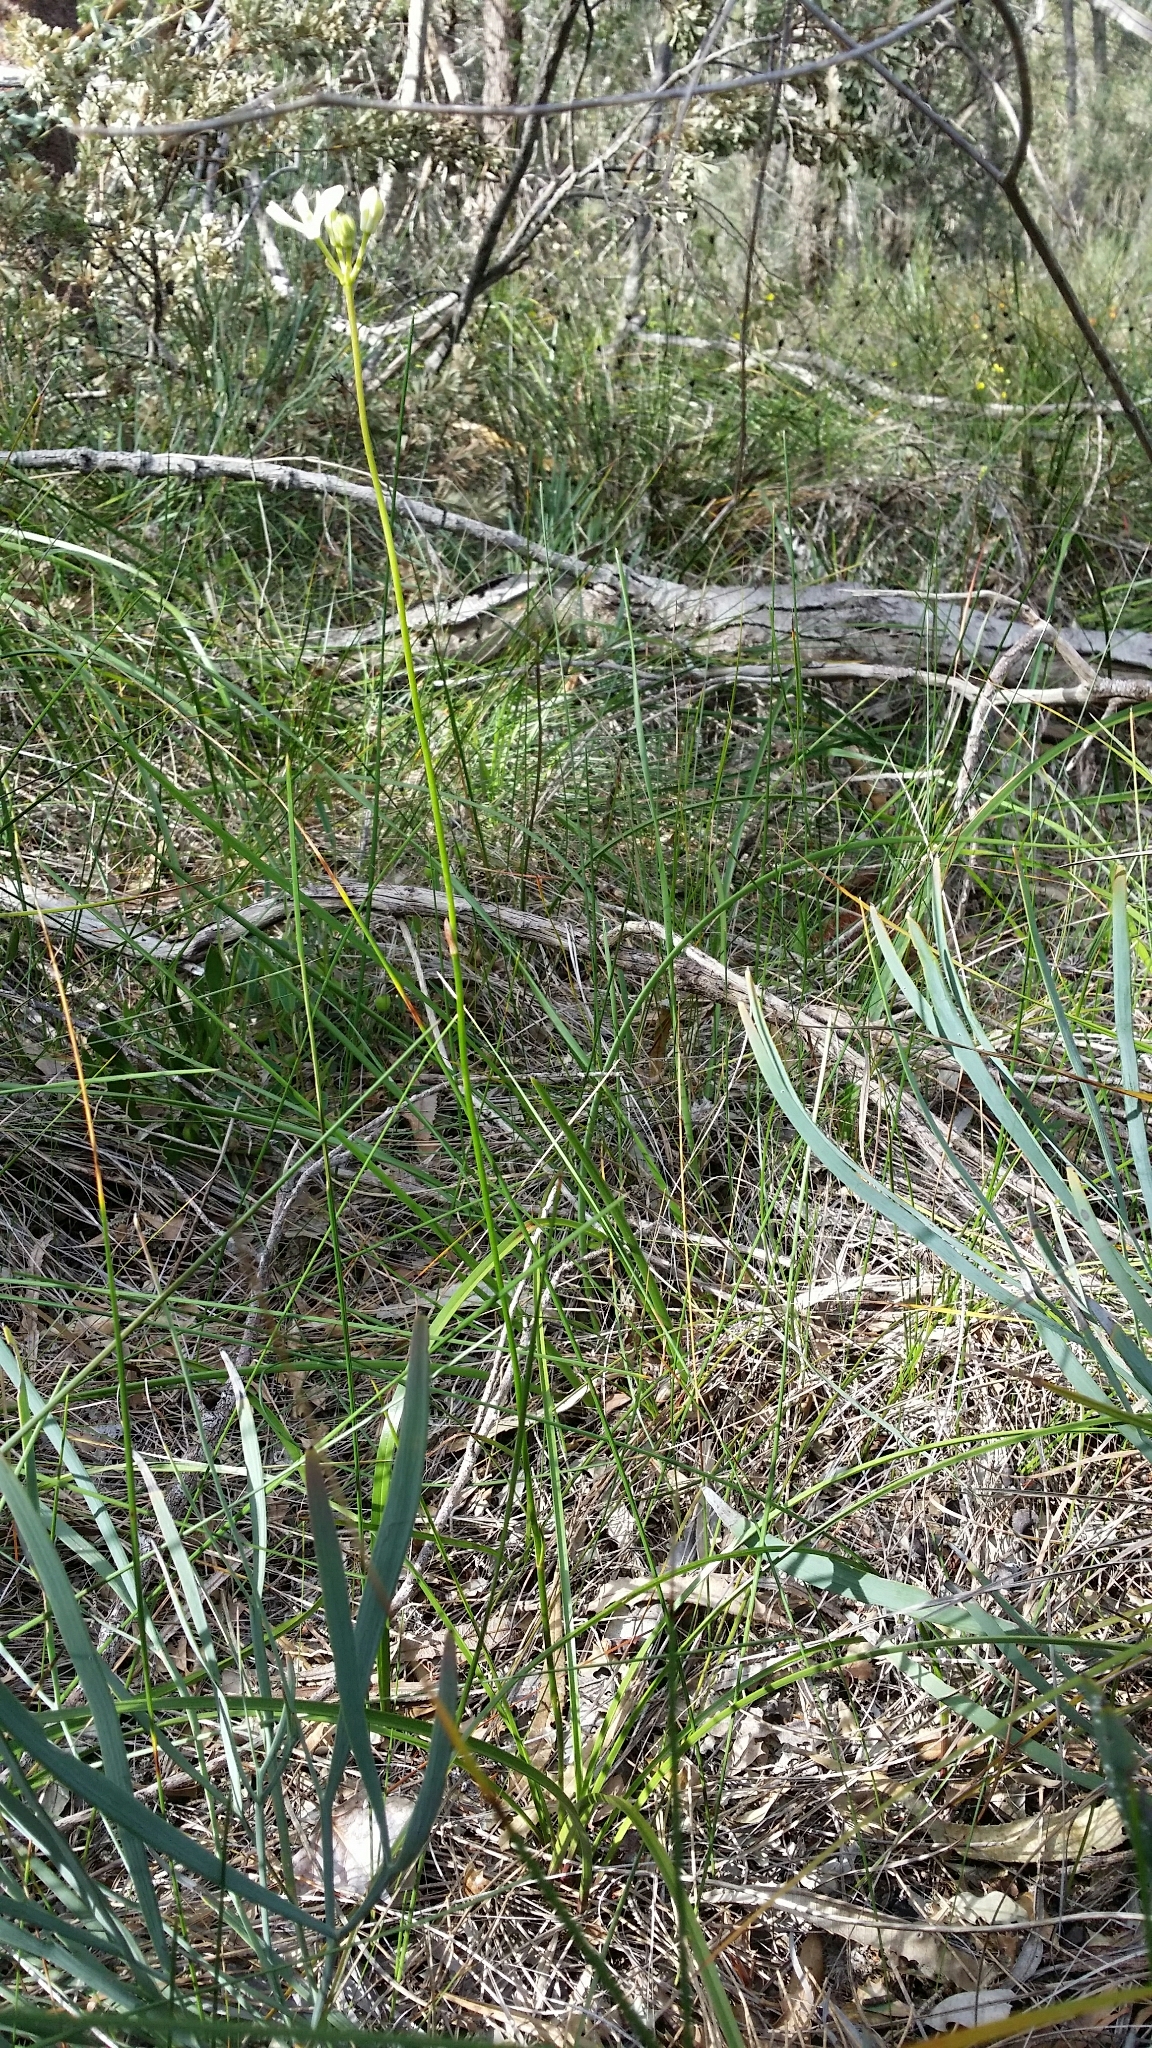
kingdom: Plantae
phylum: Tracheophyta
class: Liliopsida
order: Liliales
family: Colchicaceae
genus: Burchardia
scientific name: Burchardia congesta
